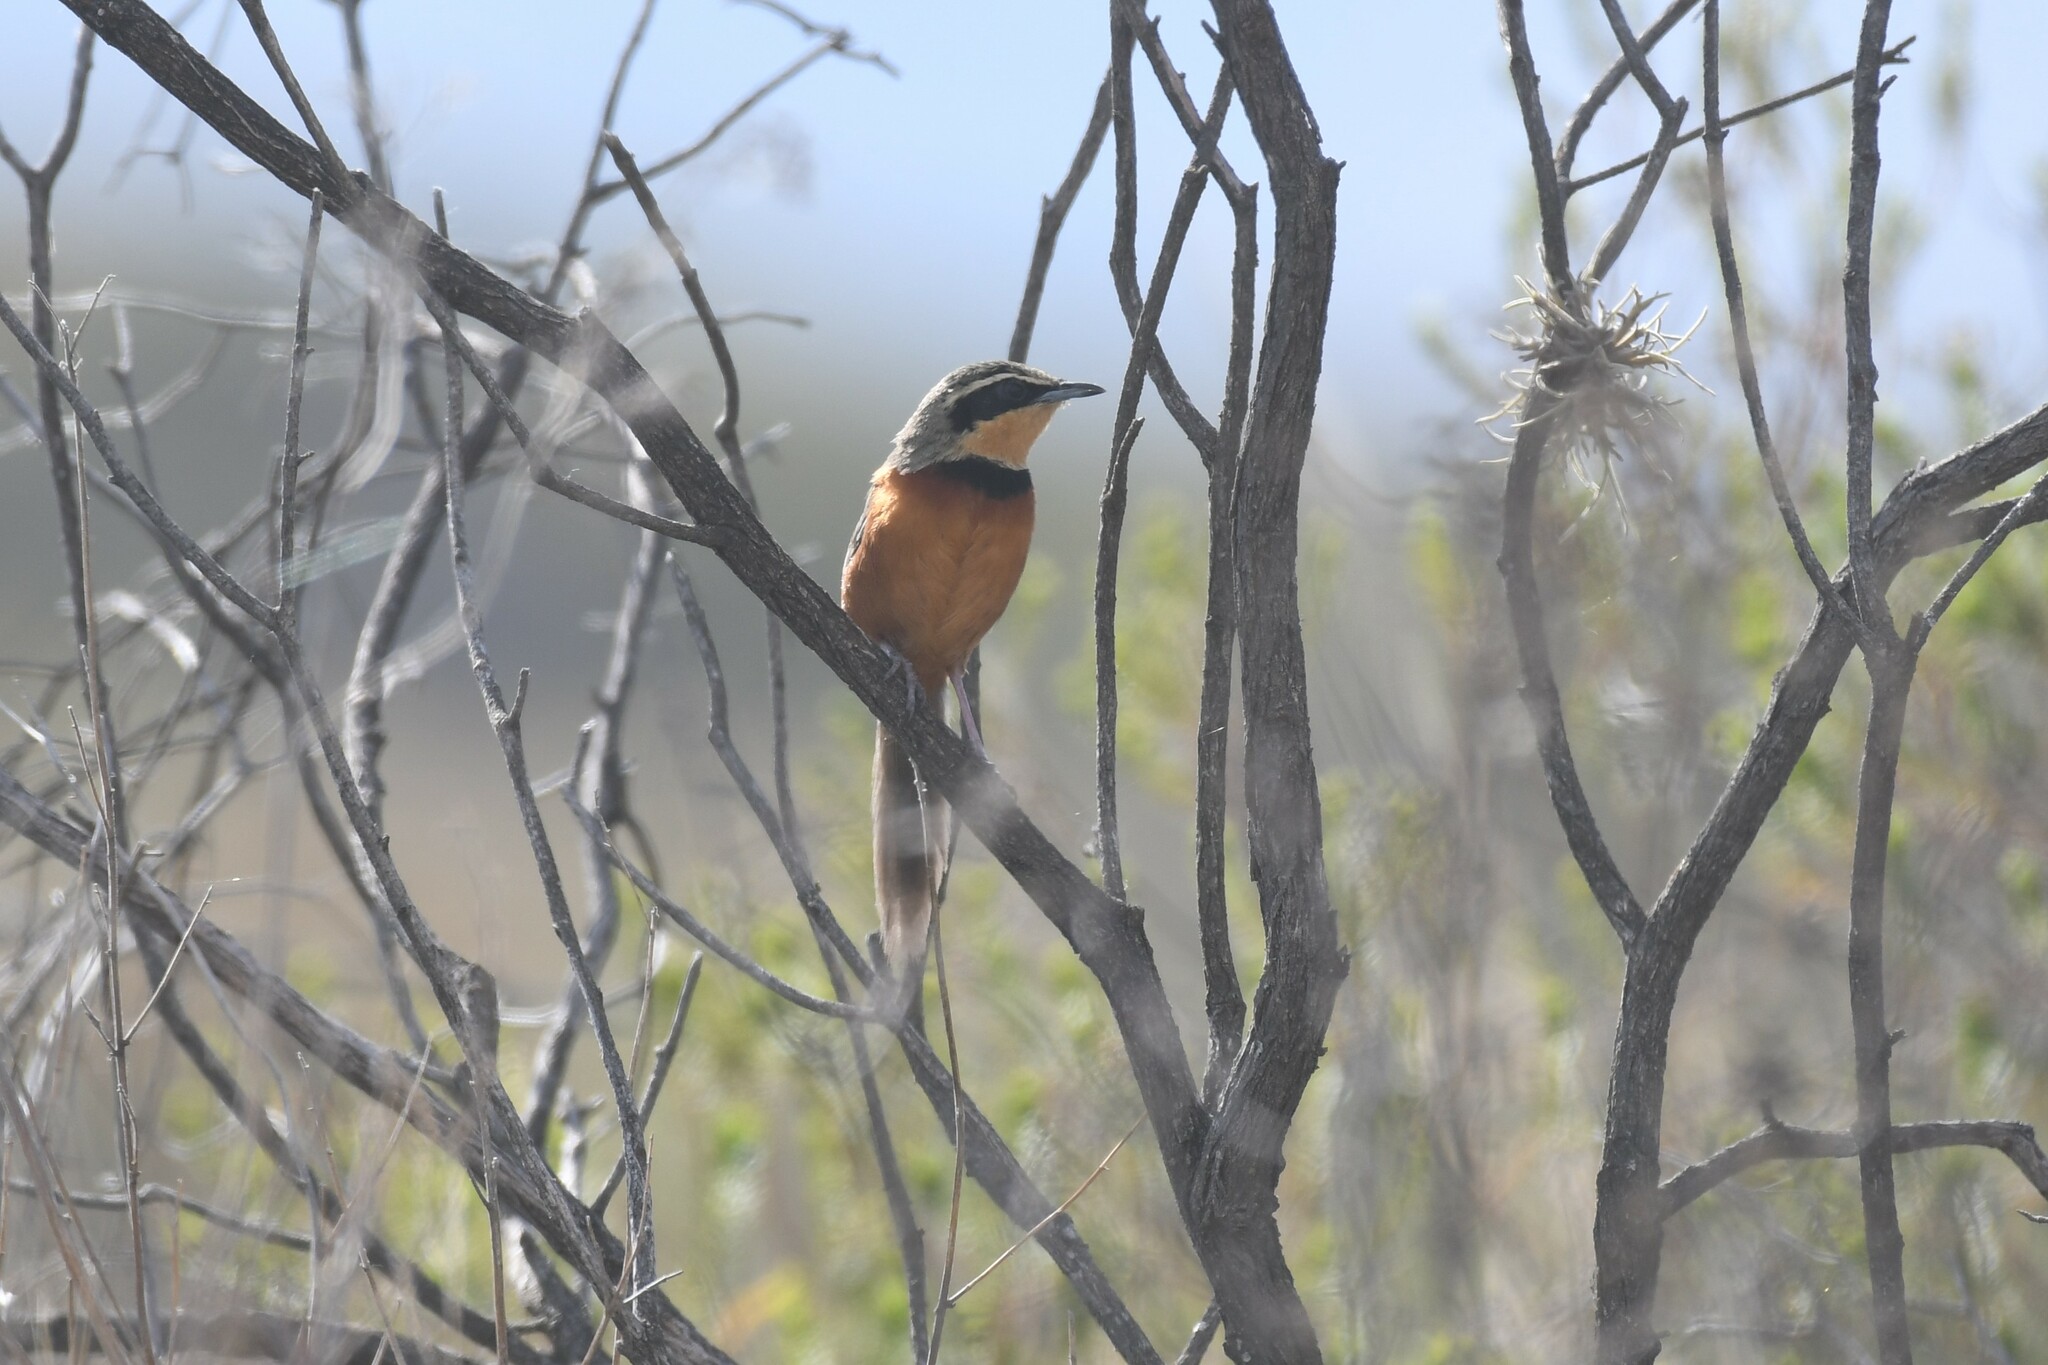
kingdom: Animalia
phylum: Chordata
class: Aves
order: Passeriformes
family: Melanopareiidae
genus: Melanopareia
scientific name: Melanopareia maximiliani
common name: Olive-crowned crescentchest
